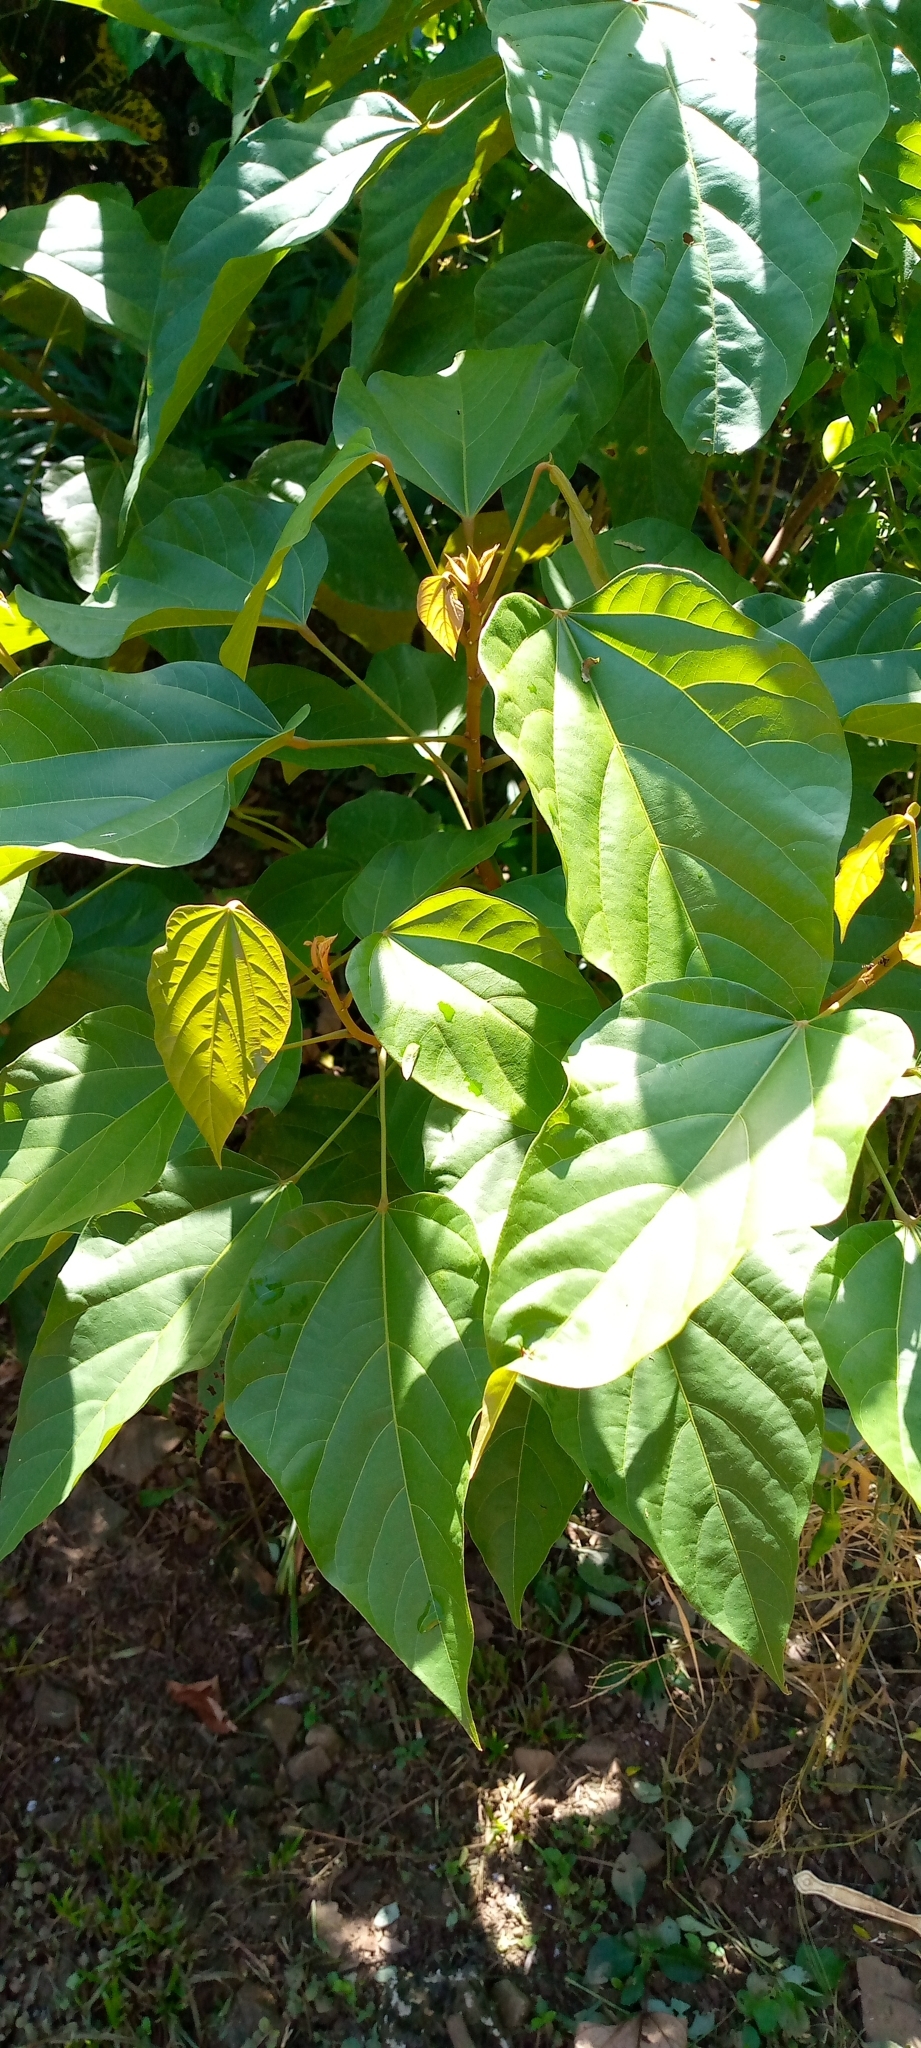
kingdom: Plantae
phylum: Tracheophyta
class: Magnoliopsida
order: Malvales
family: Bixaceae
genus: Bixa
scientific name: Bixa orellana
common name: Lipsticktree
